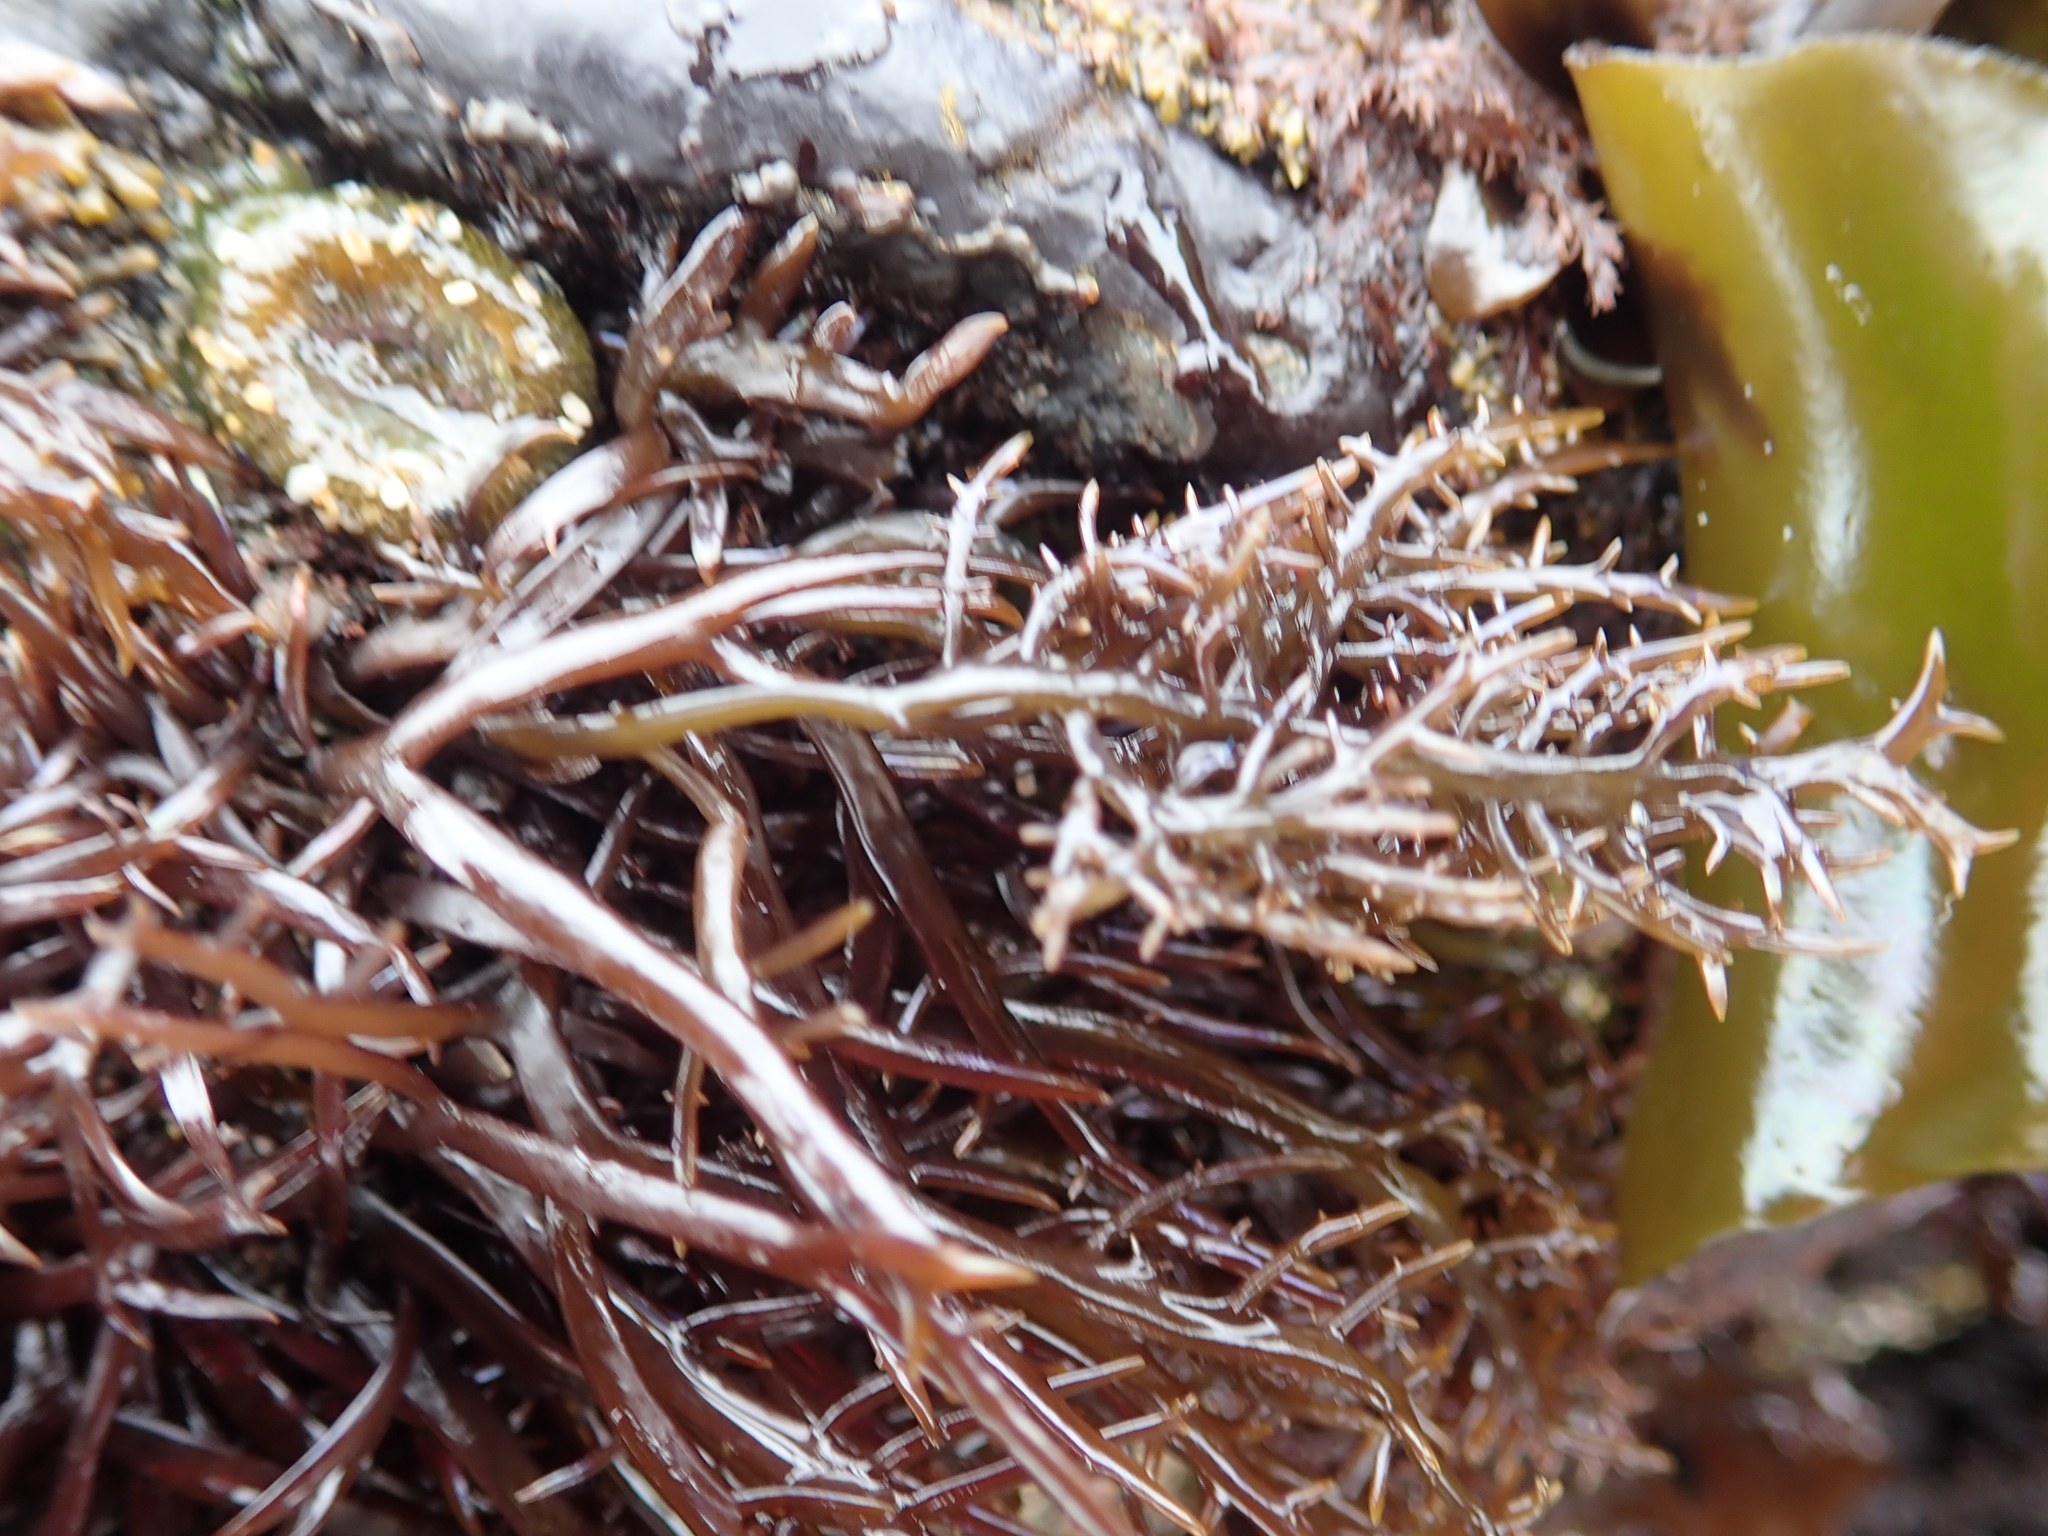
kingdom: Plantae
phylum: Rhodophyta
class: Florideophyceae
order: Gigartinales
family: Gigartinaceae
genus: Chondracanthus
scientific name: Chondracanthus canaliculatus
